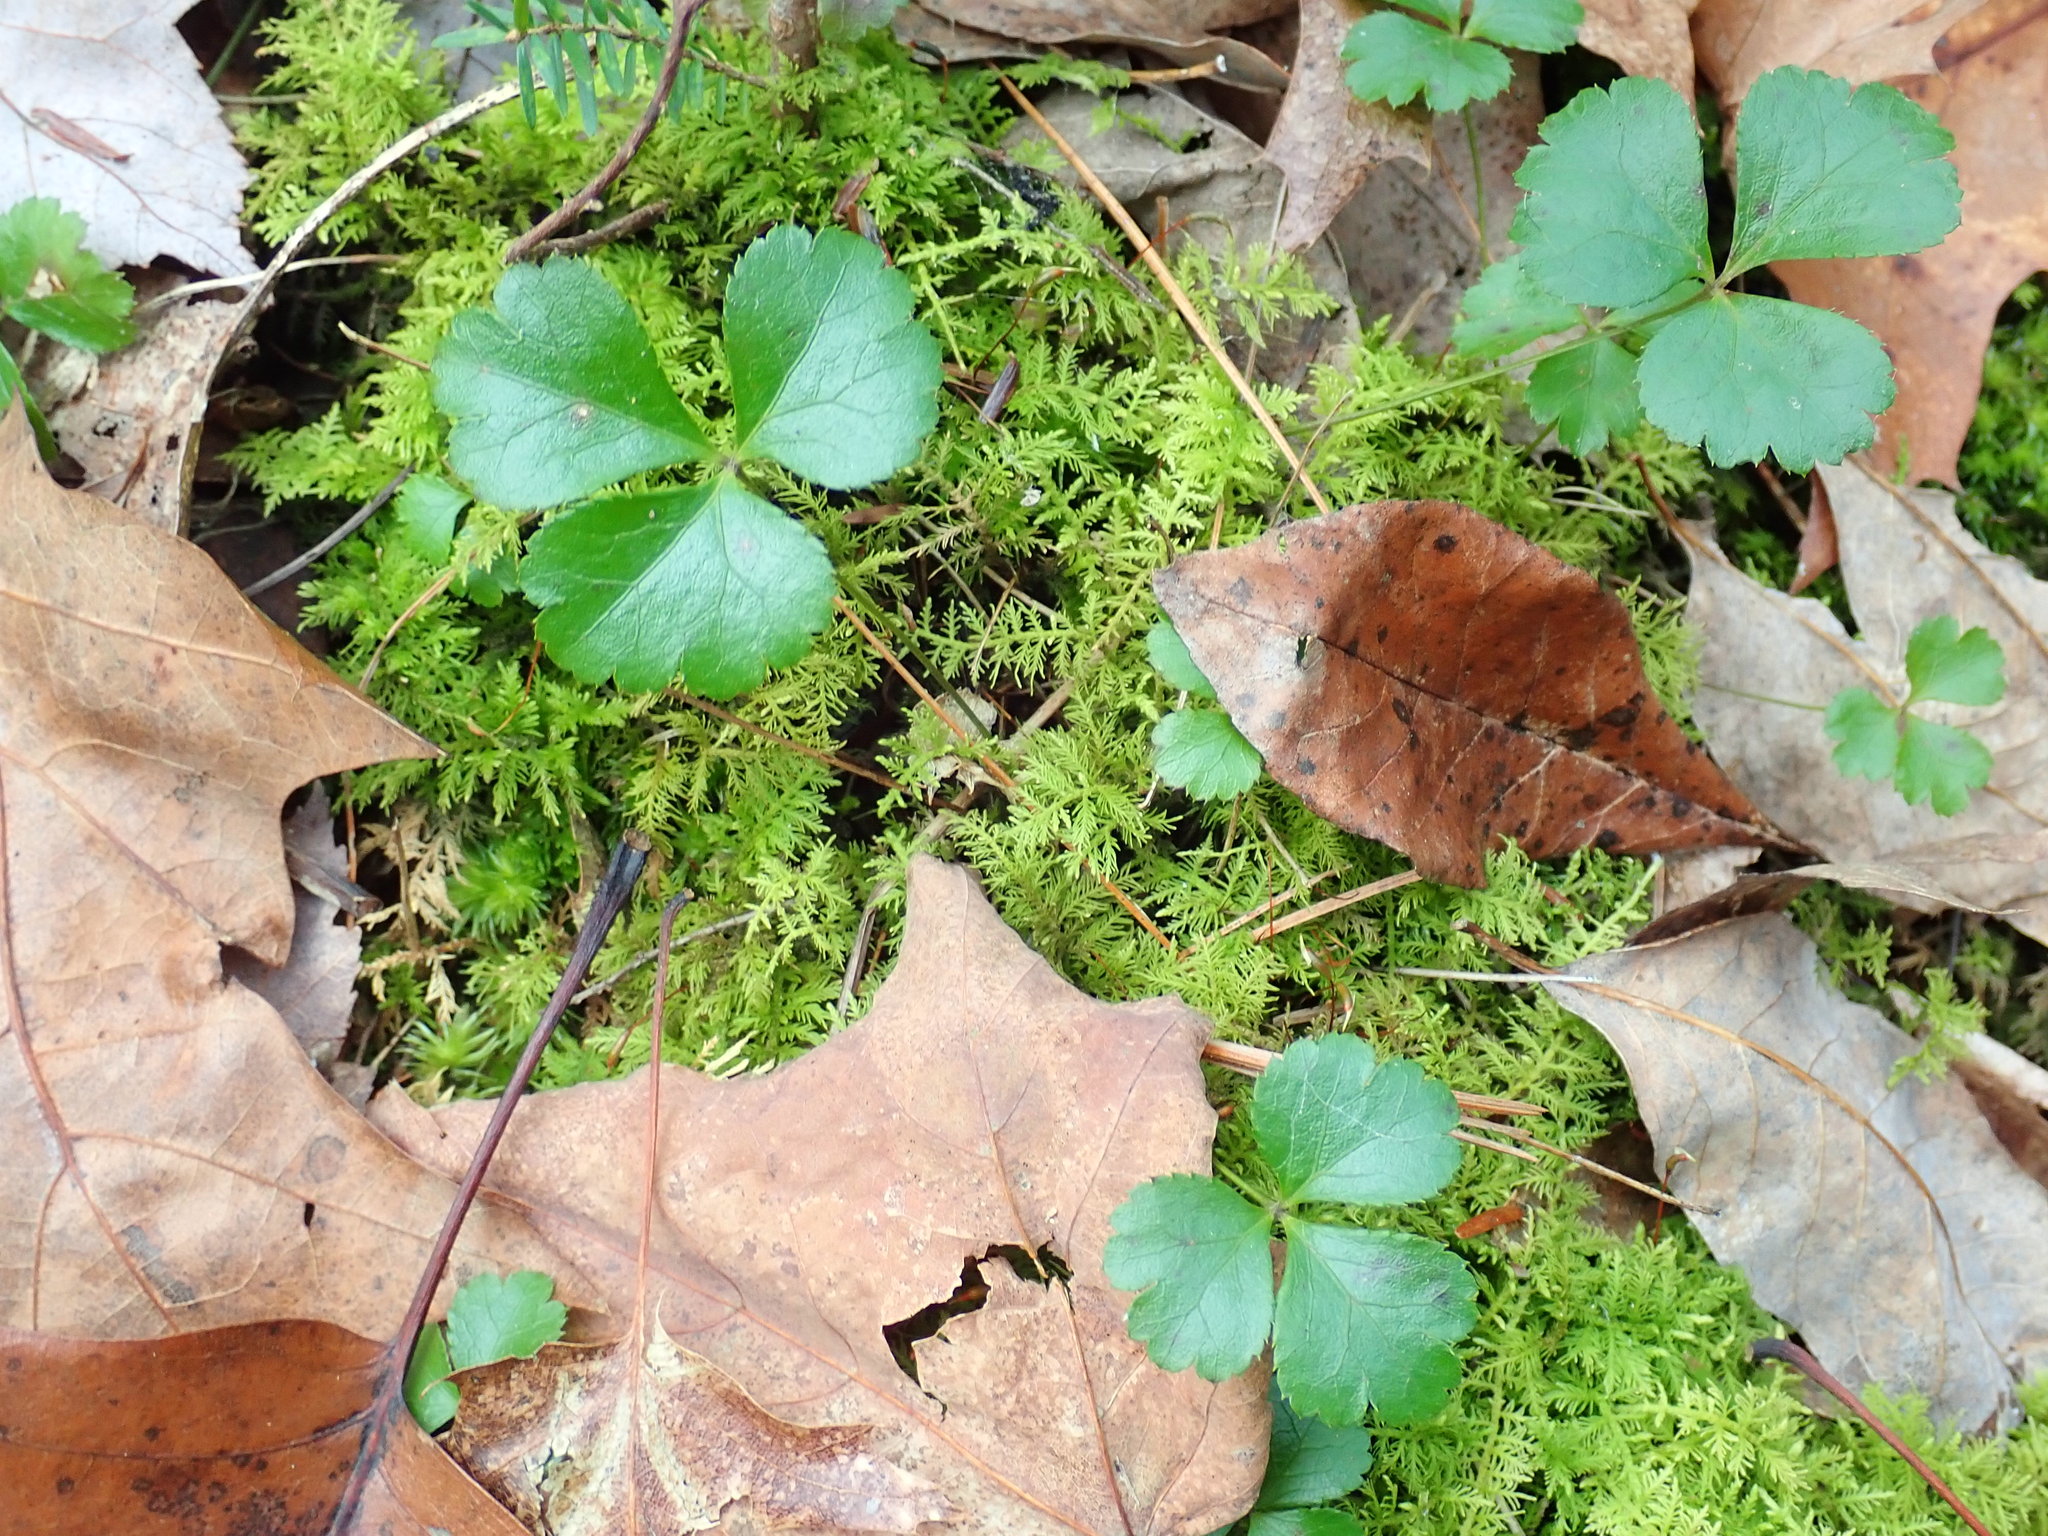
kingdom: Plantae
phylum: Tracheophyta
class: Magnoliopsida
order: Ranunculales
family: Ranunculaceae
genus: Coptis
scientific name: Coptis trifolia
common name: Canker-root
